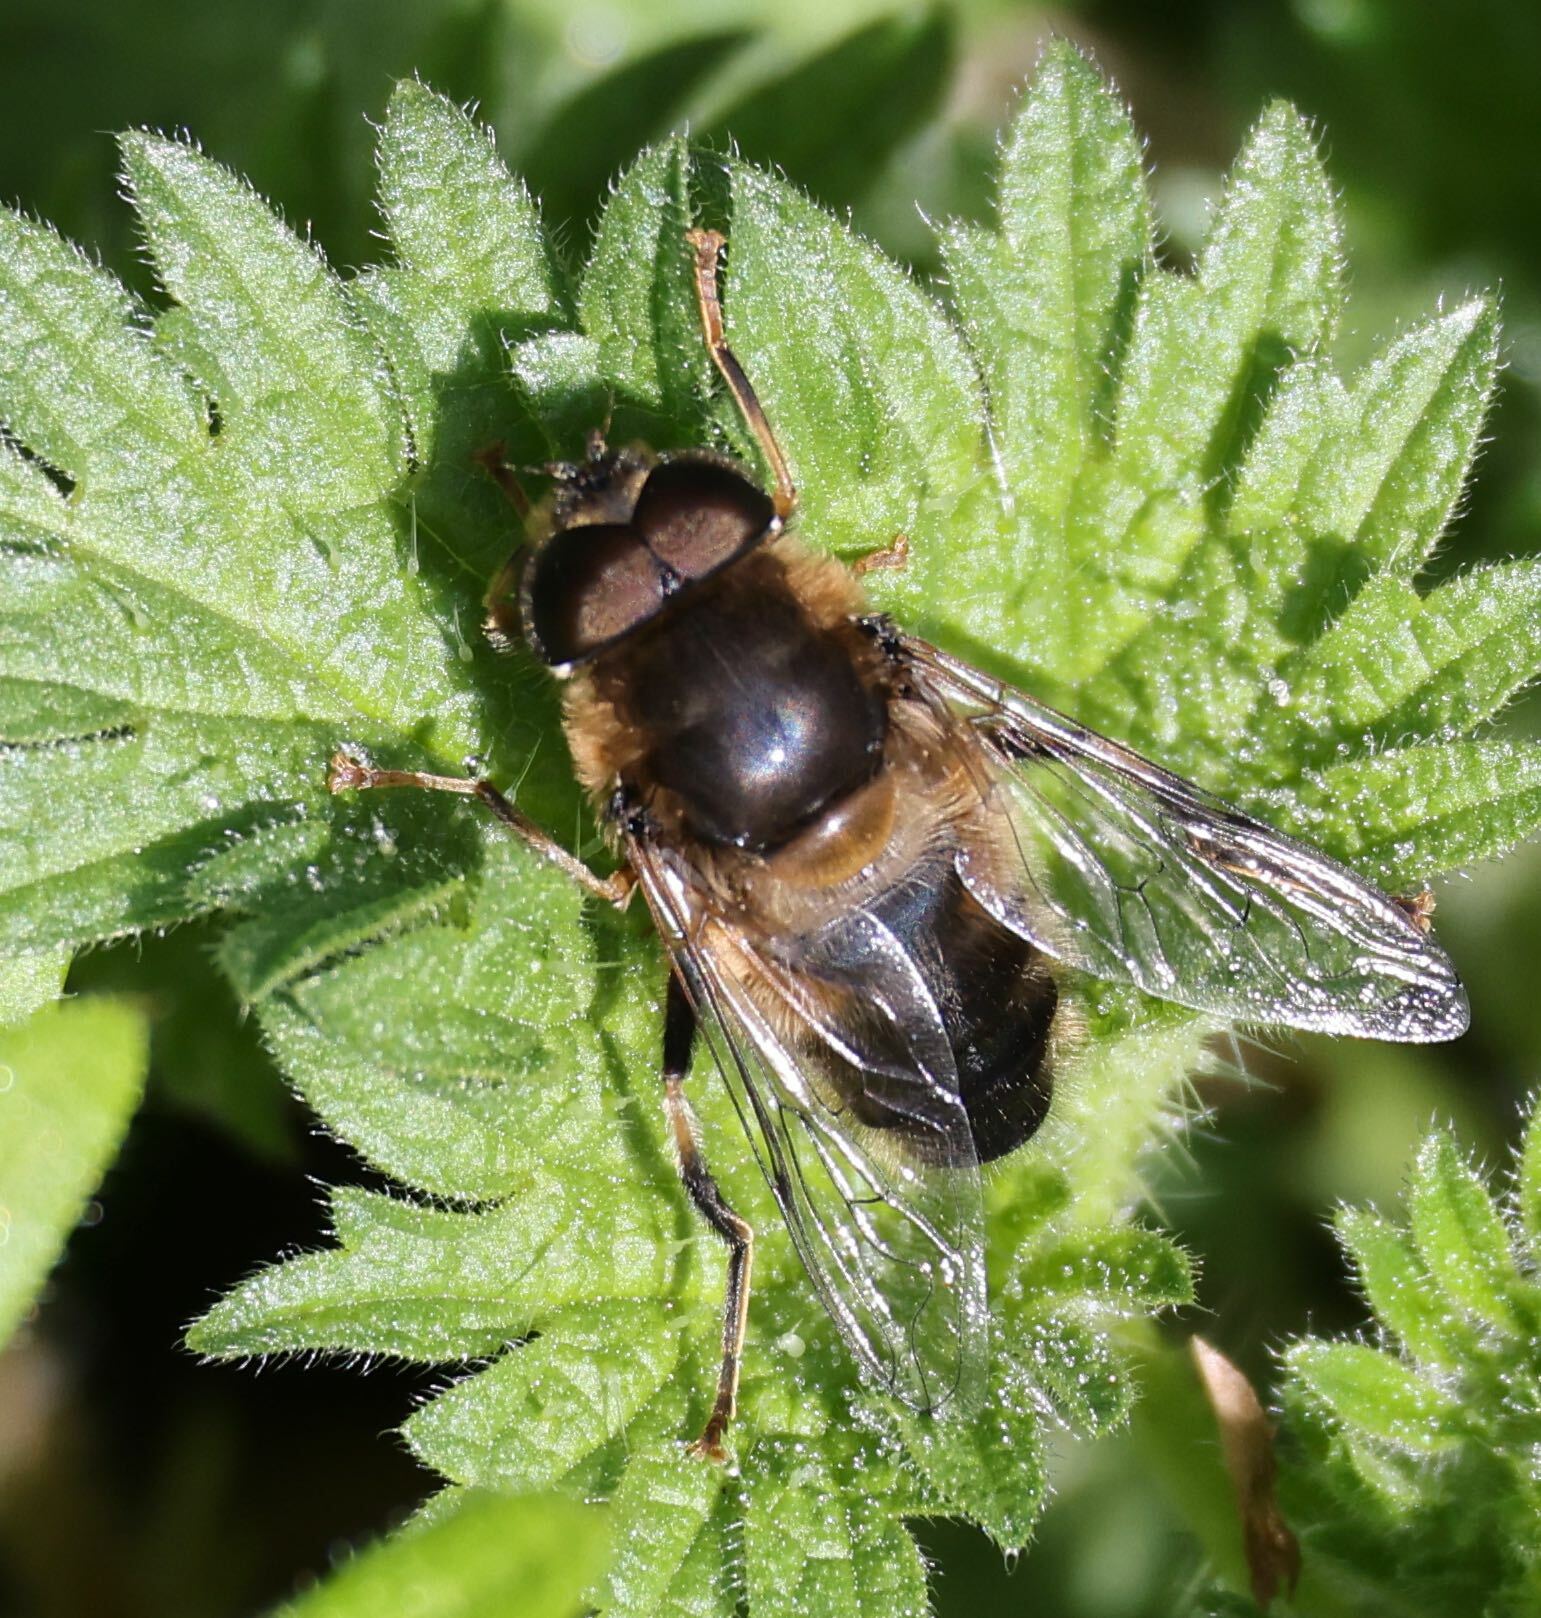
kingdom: Animalia
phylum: Arthropoda
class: Insecta
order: Diptera
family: Syrphidae
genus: Eristalis
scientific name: Eristalis pertinax
